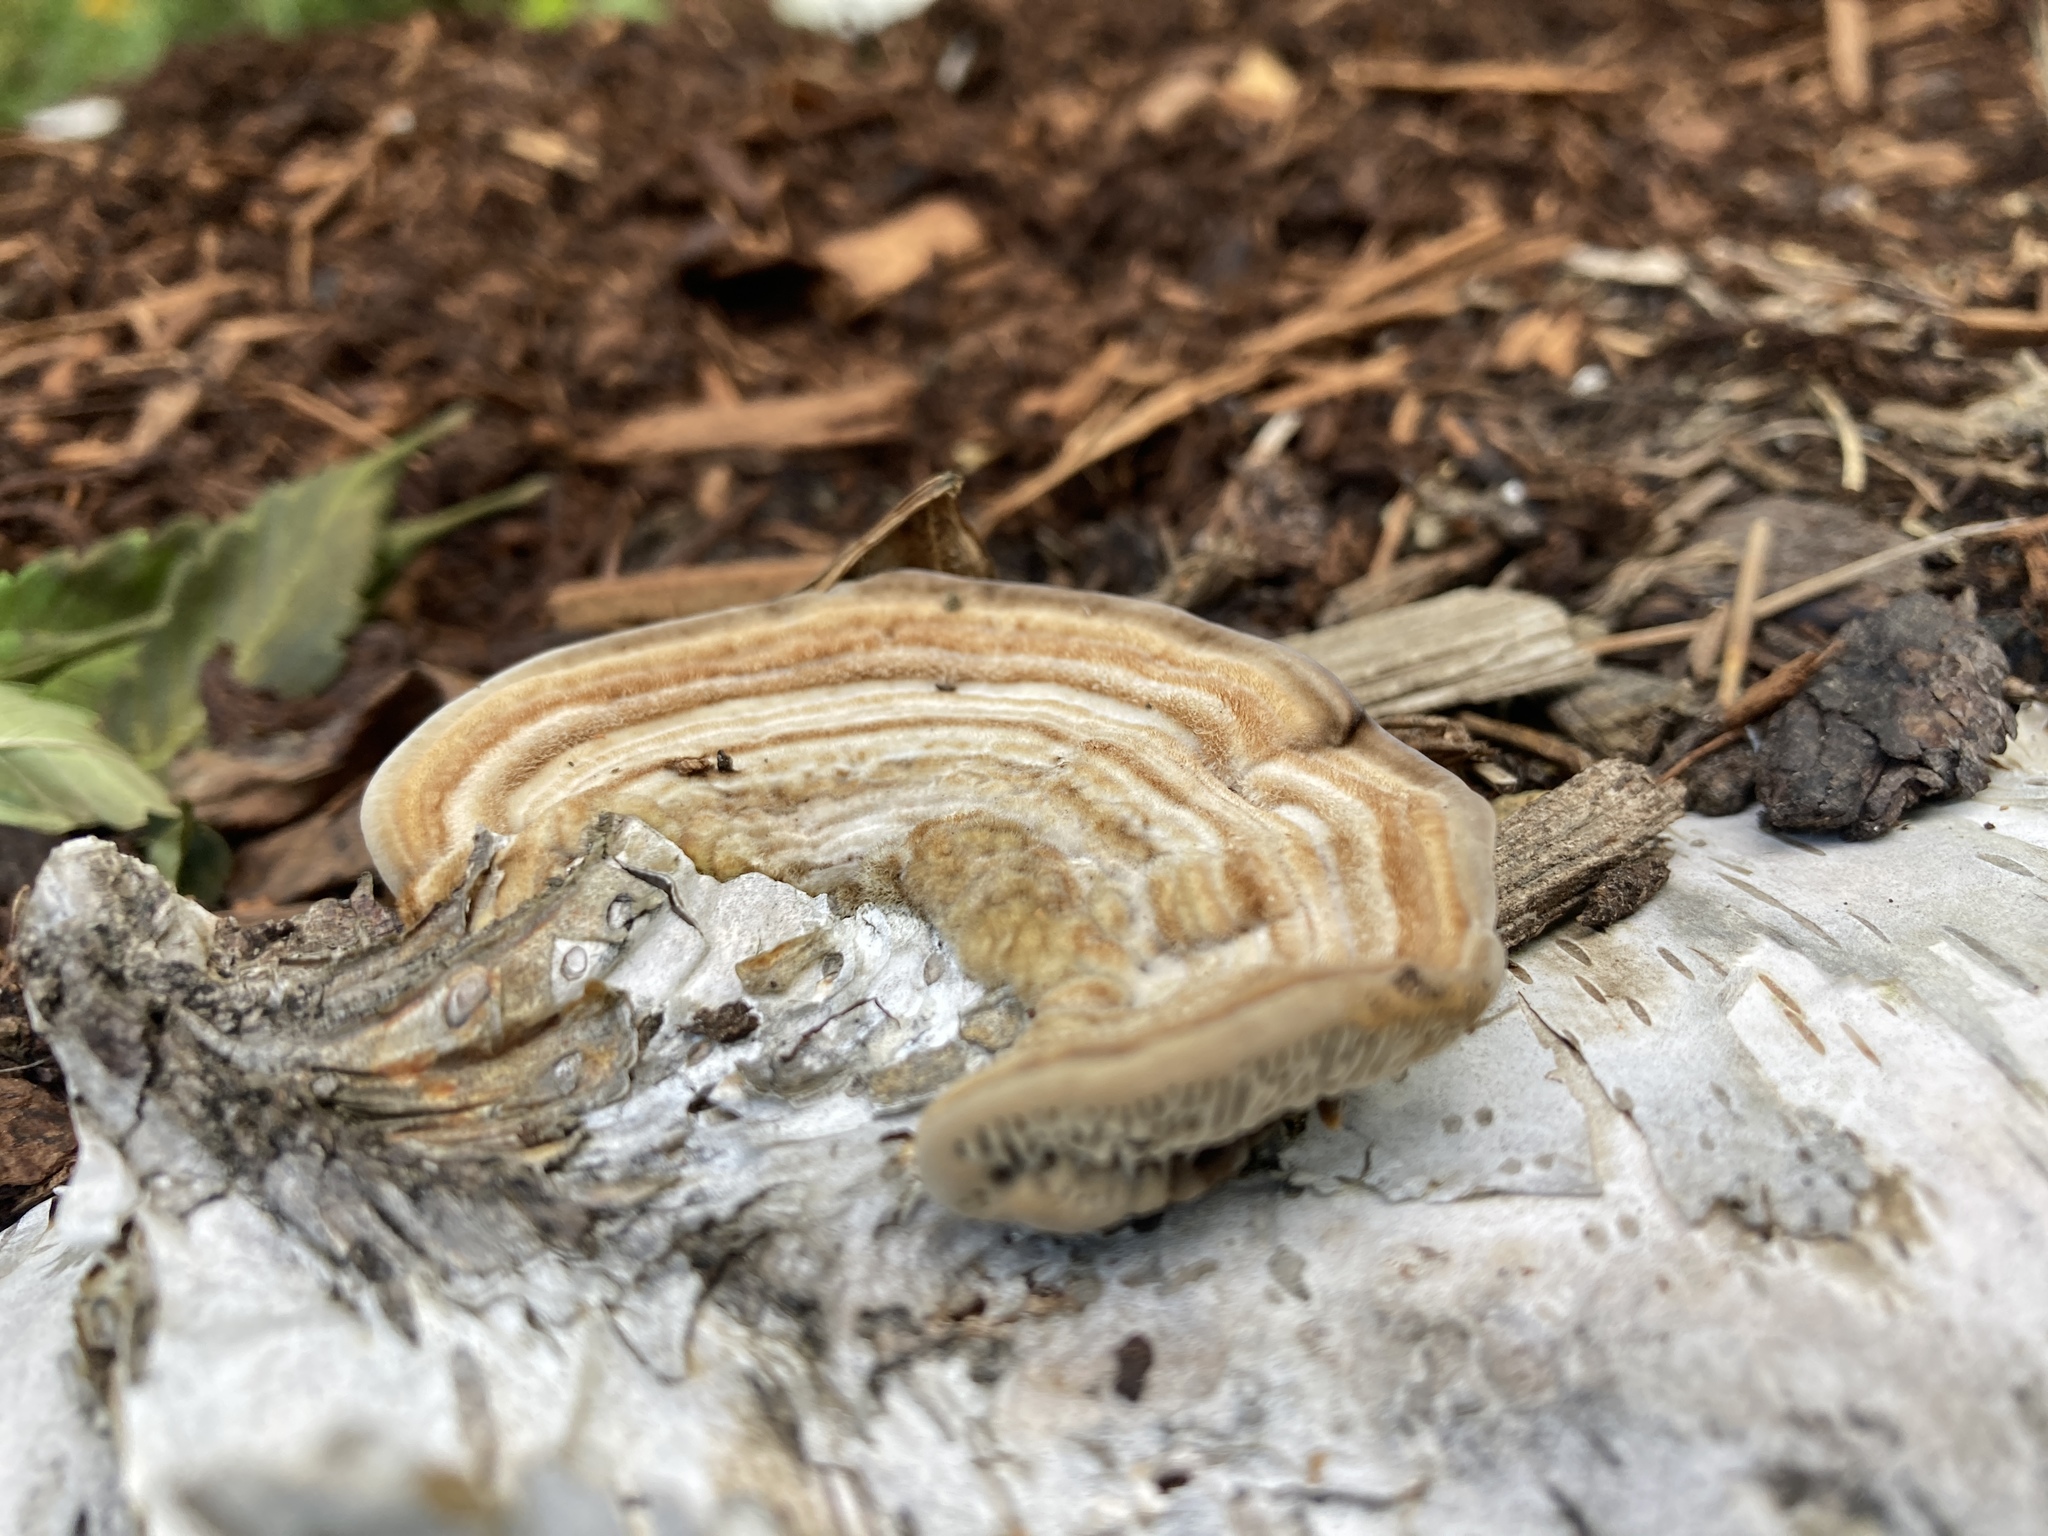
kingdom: Fungi
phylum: Basidiomycota
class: Agaricomycetes
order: Polyporales
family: Polyporaceae
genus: Lenzites
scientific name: Lenzites betulinus
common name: Birch mazegill
